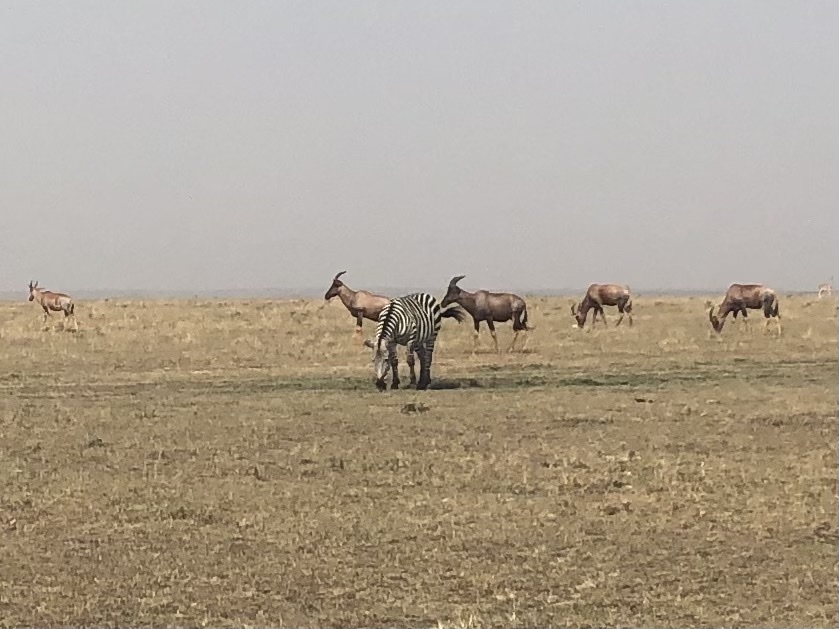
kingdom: Animalia
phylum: Chordata
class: Mammalia
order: Perissodactyla
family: Equidae
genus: Equus
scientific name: Equus quagga
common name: Plains zebra
